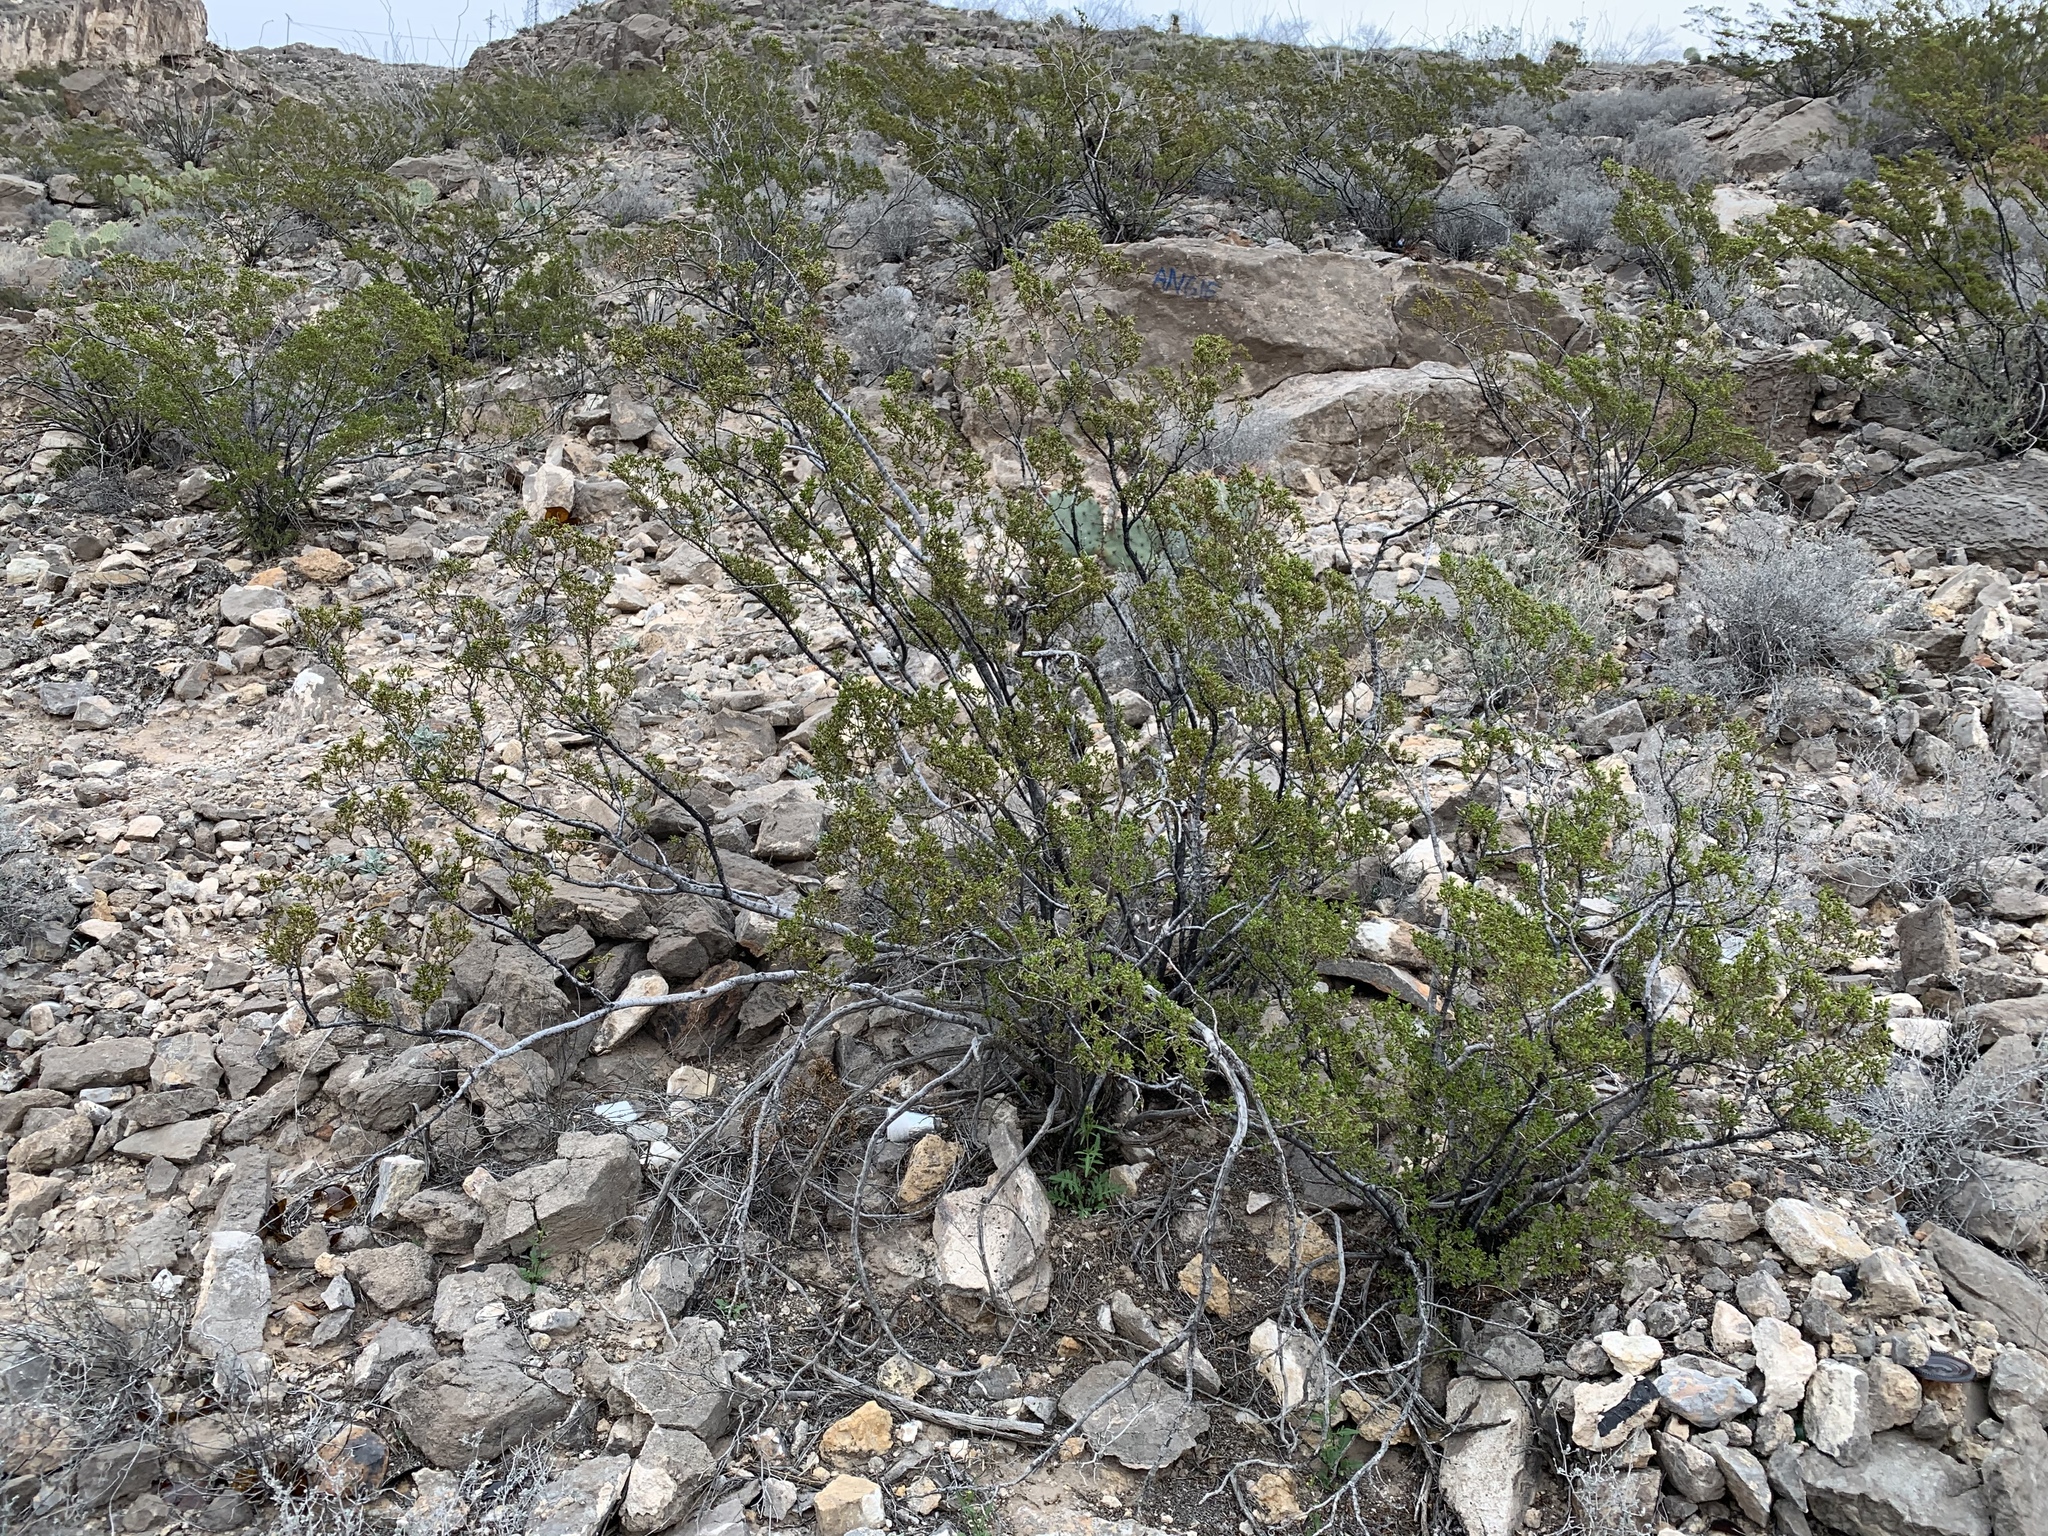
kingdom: Plantae
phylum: Tracheophyta
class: Magnoliopsida
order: Zygophyllales
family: Zygophyllaceae
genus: Larrea
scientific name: Larrea tridentata
